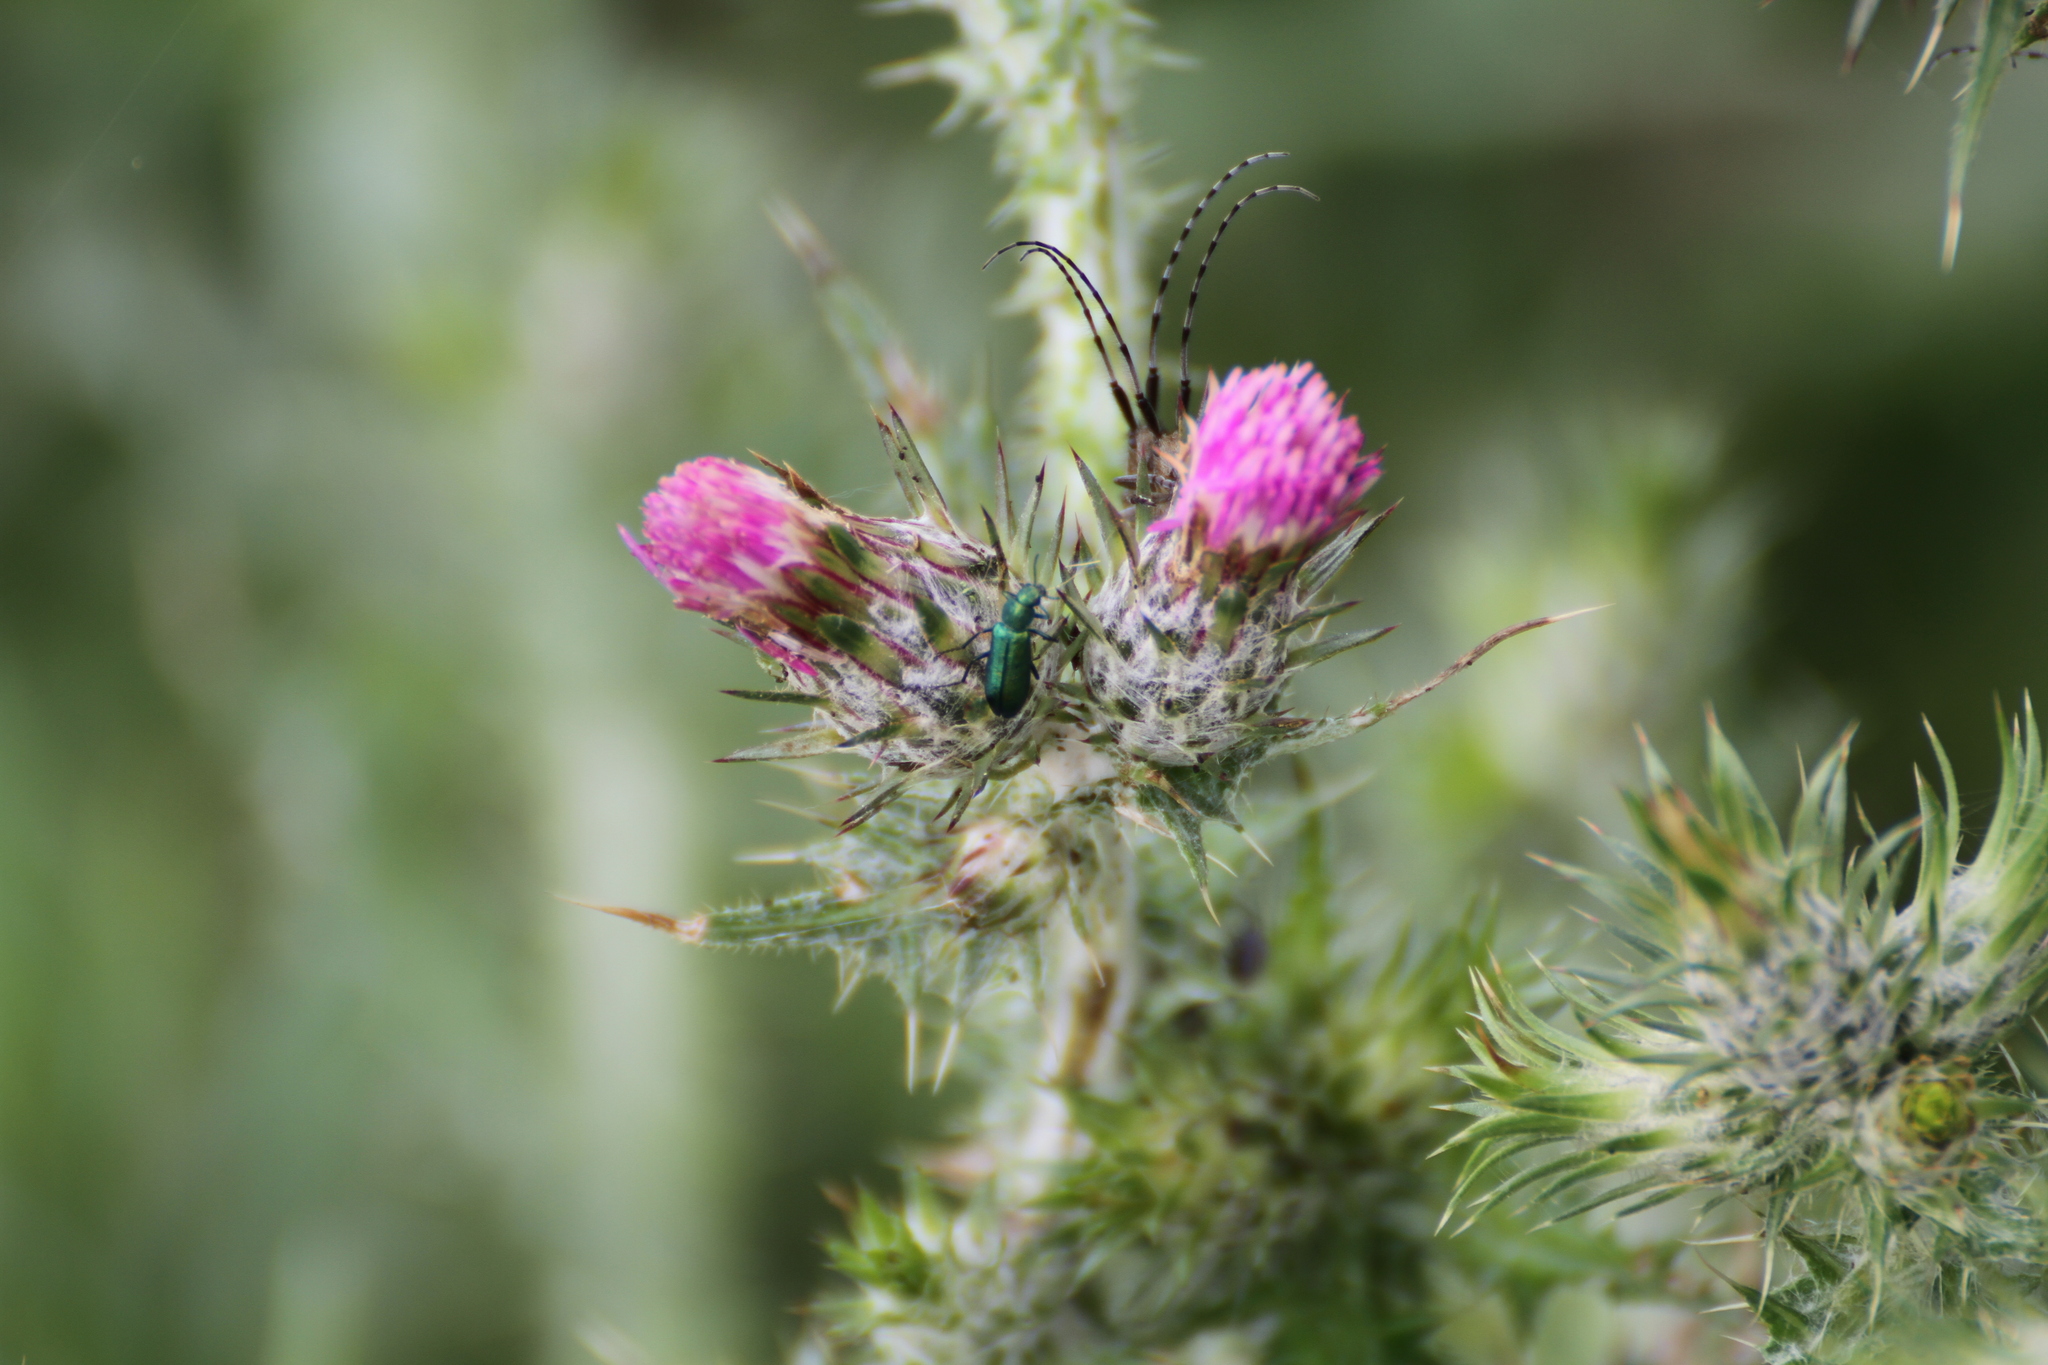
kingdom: Animalia
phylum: Arthropoda
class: Insecta
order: Coleoptera
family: Dasytidae
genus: Psilothrix
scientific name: Psilothrix viridicoerulea
